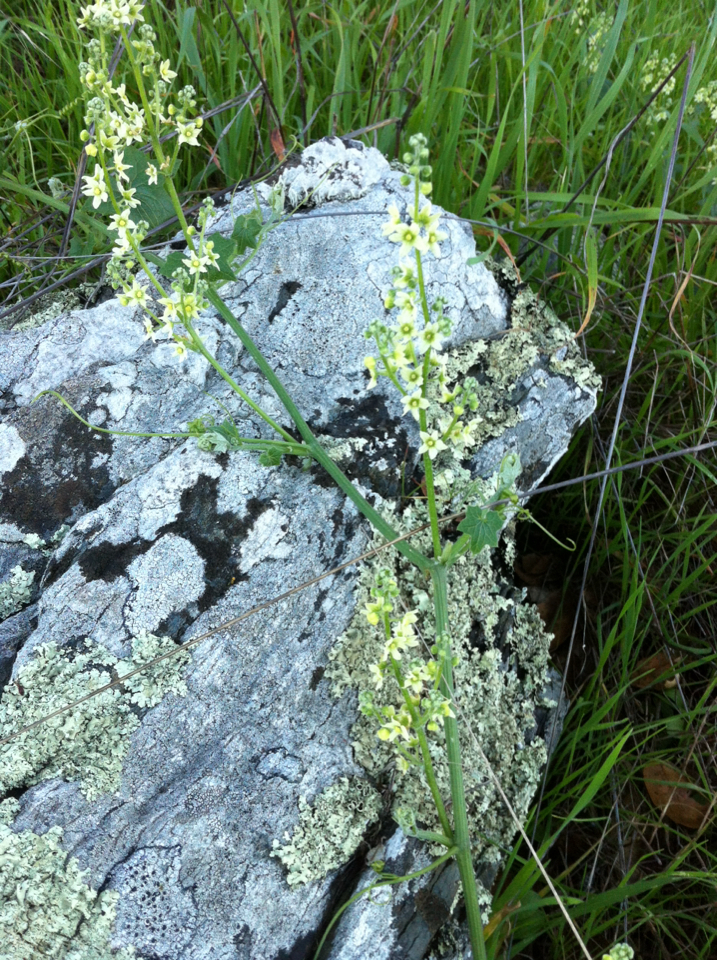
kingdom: Plantae
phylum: Tracheophyta
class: Magnoliopsida
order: Cucurbitales
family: Cucurbitaceae
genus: Marah
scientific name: Marah fabacea
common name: California manroot
